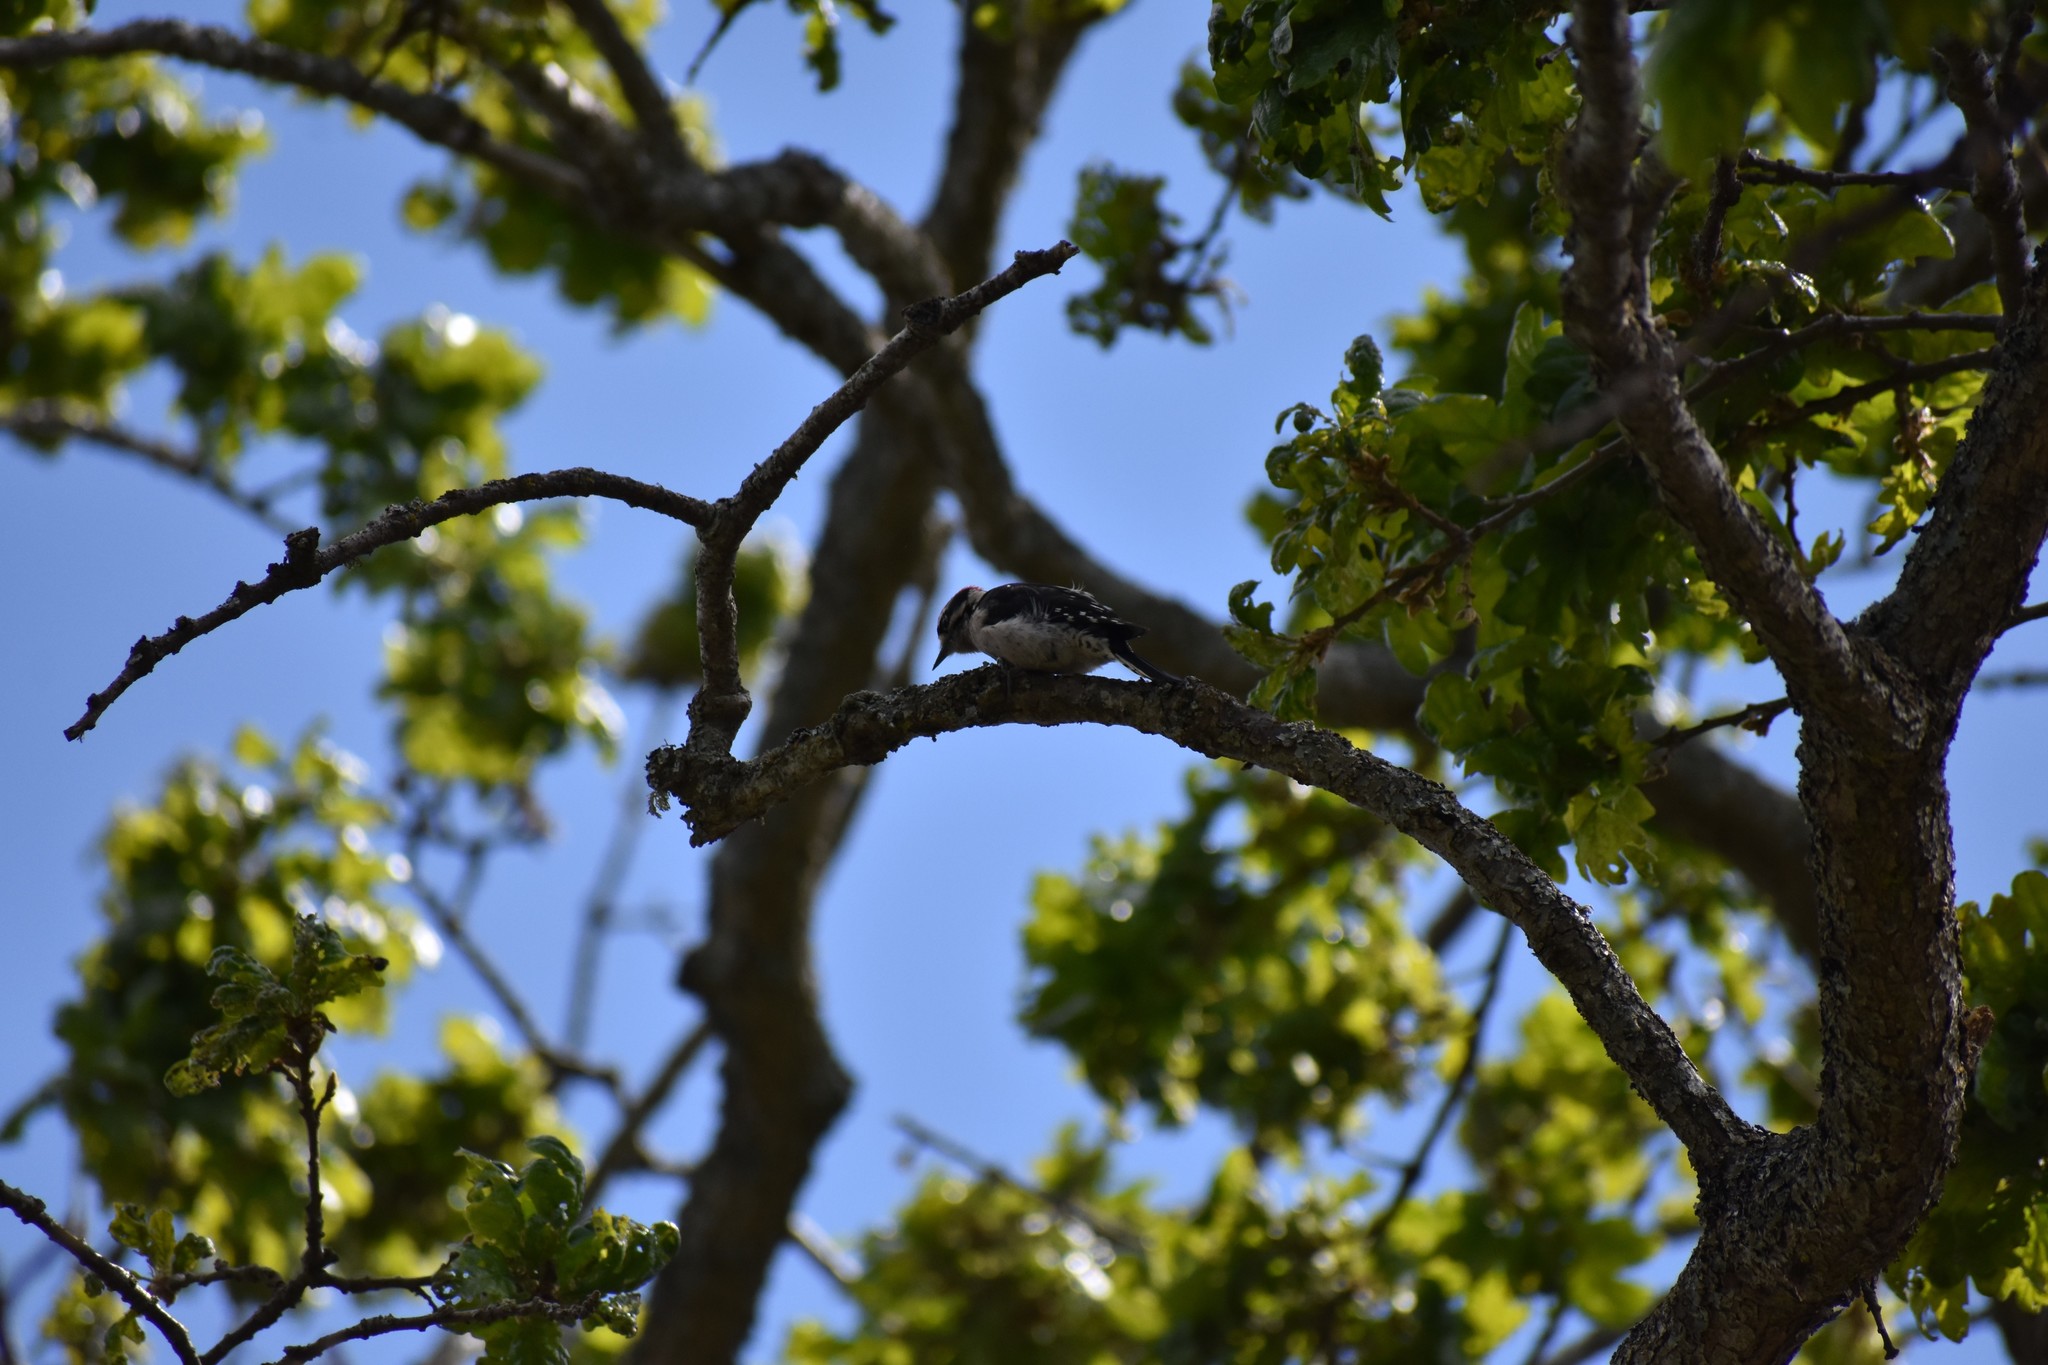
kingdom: Animalia
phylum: Chordata
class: Aves
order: Piciformes
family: Picidae
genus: Dryobates
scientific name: Dryobates pubescens
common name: Downy woodpecker
